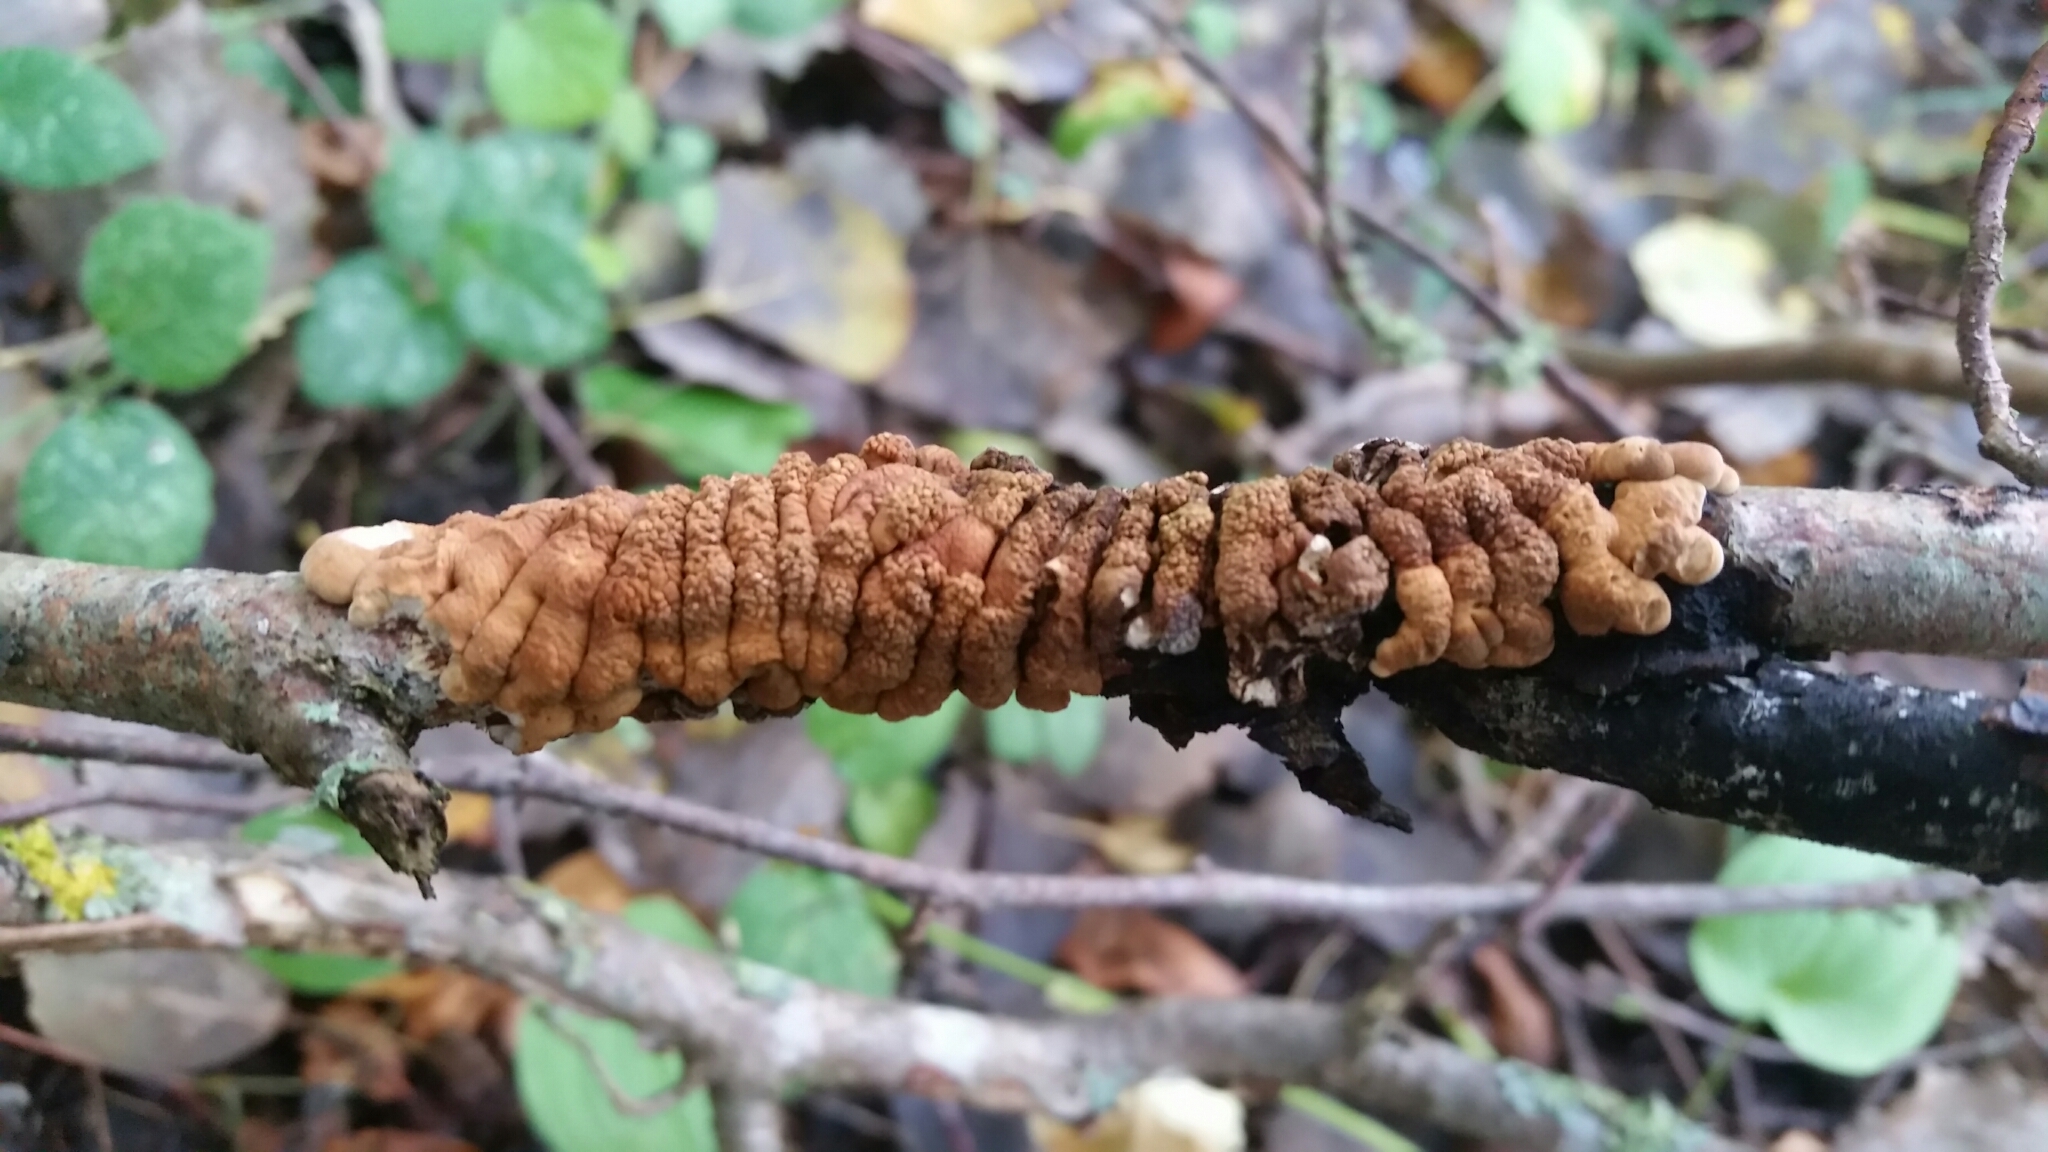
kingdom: Fungi
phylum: Ascomycota
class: Sordariomycetes
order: Hypocreales
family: Hypocreaceae
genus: Hypocreopsis
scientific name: Hypocreopsis lichenoides
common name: Willow gloves
